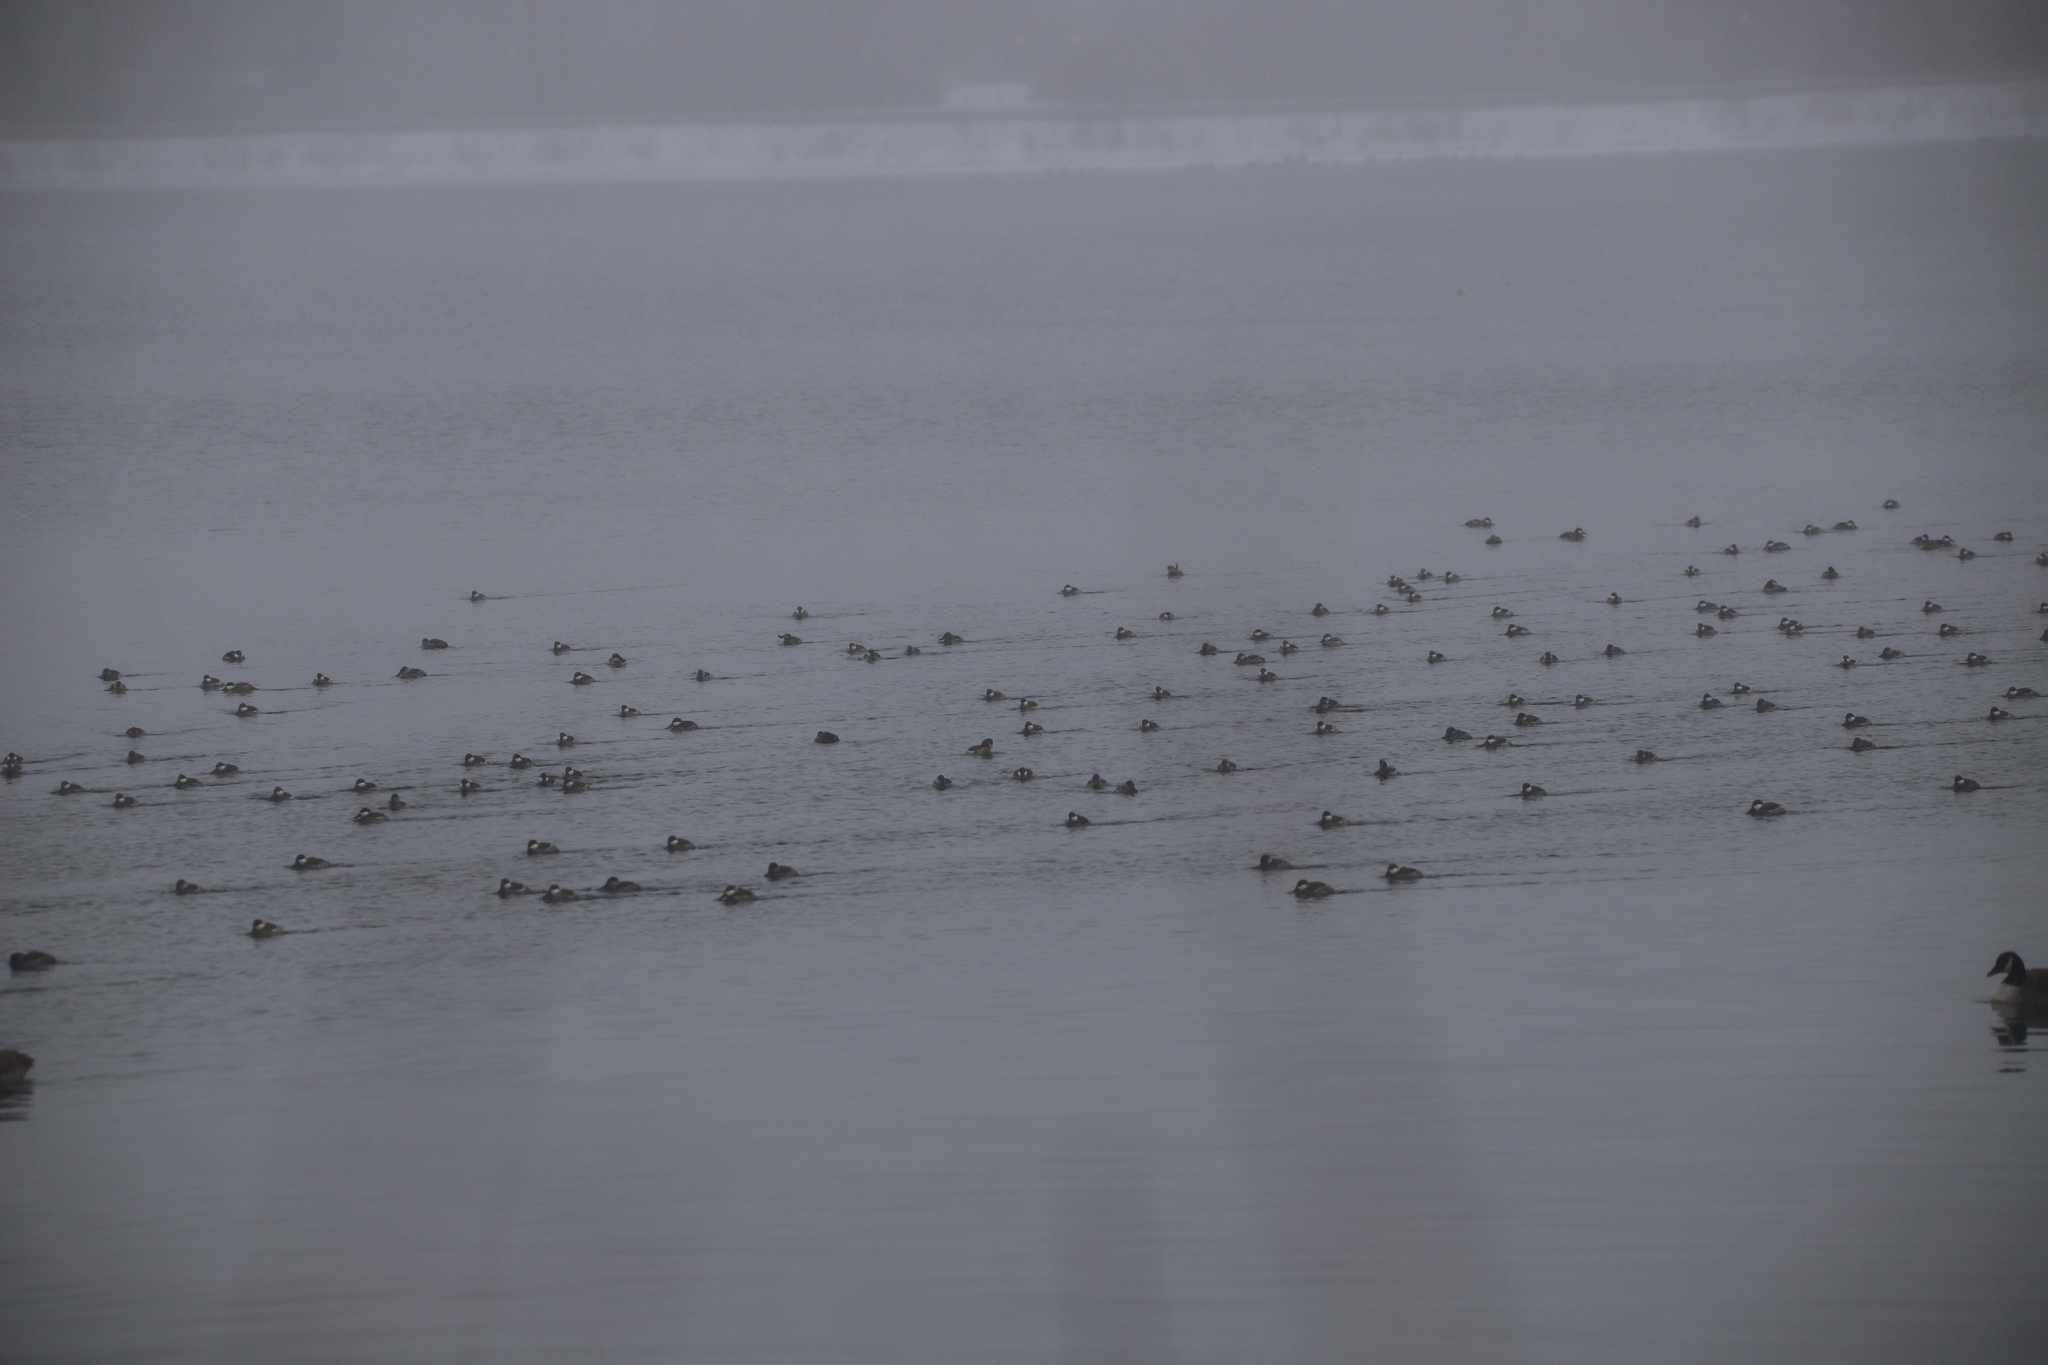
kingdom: Animalia
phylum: Chordata
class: Aves
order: Anseriformes
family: Anatidae
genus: Oxyura
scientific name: Oxyura jamaicensis
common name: Ruddy duck
